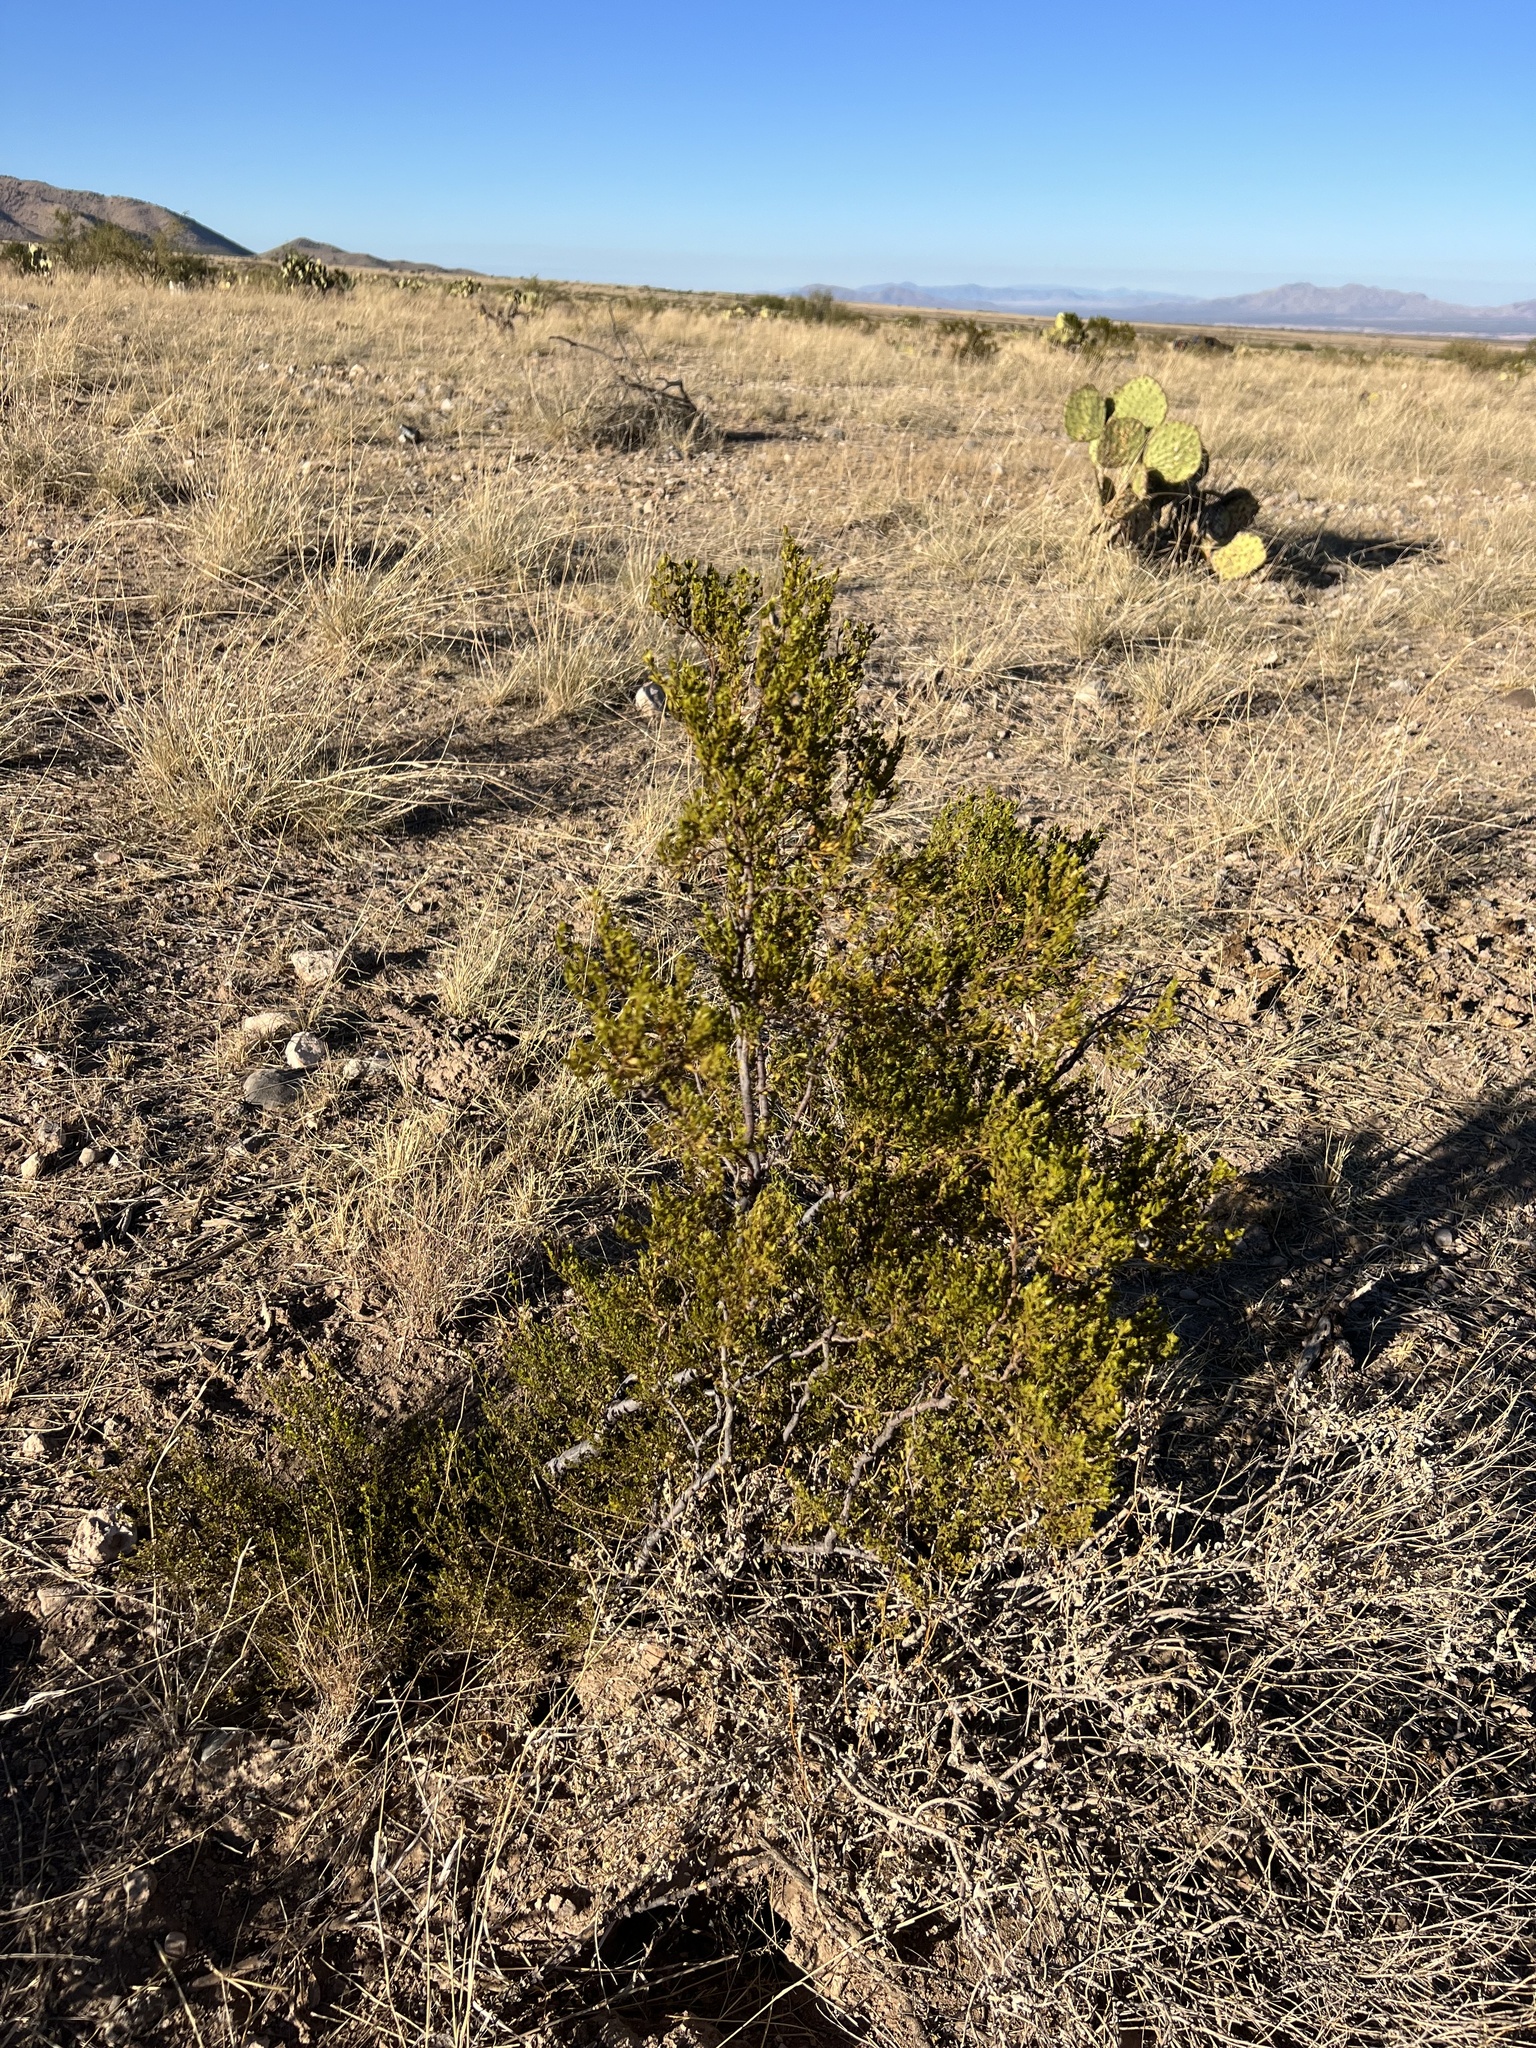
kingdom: Plantae
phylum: Tracheophyta
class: Magnoliopsida
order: Zygophyllales
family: Zygophyllaceae
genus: Larrea
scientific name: Larrea tridentata
